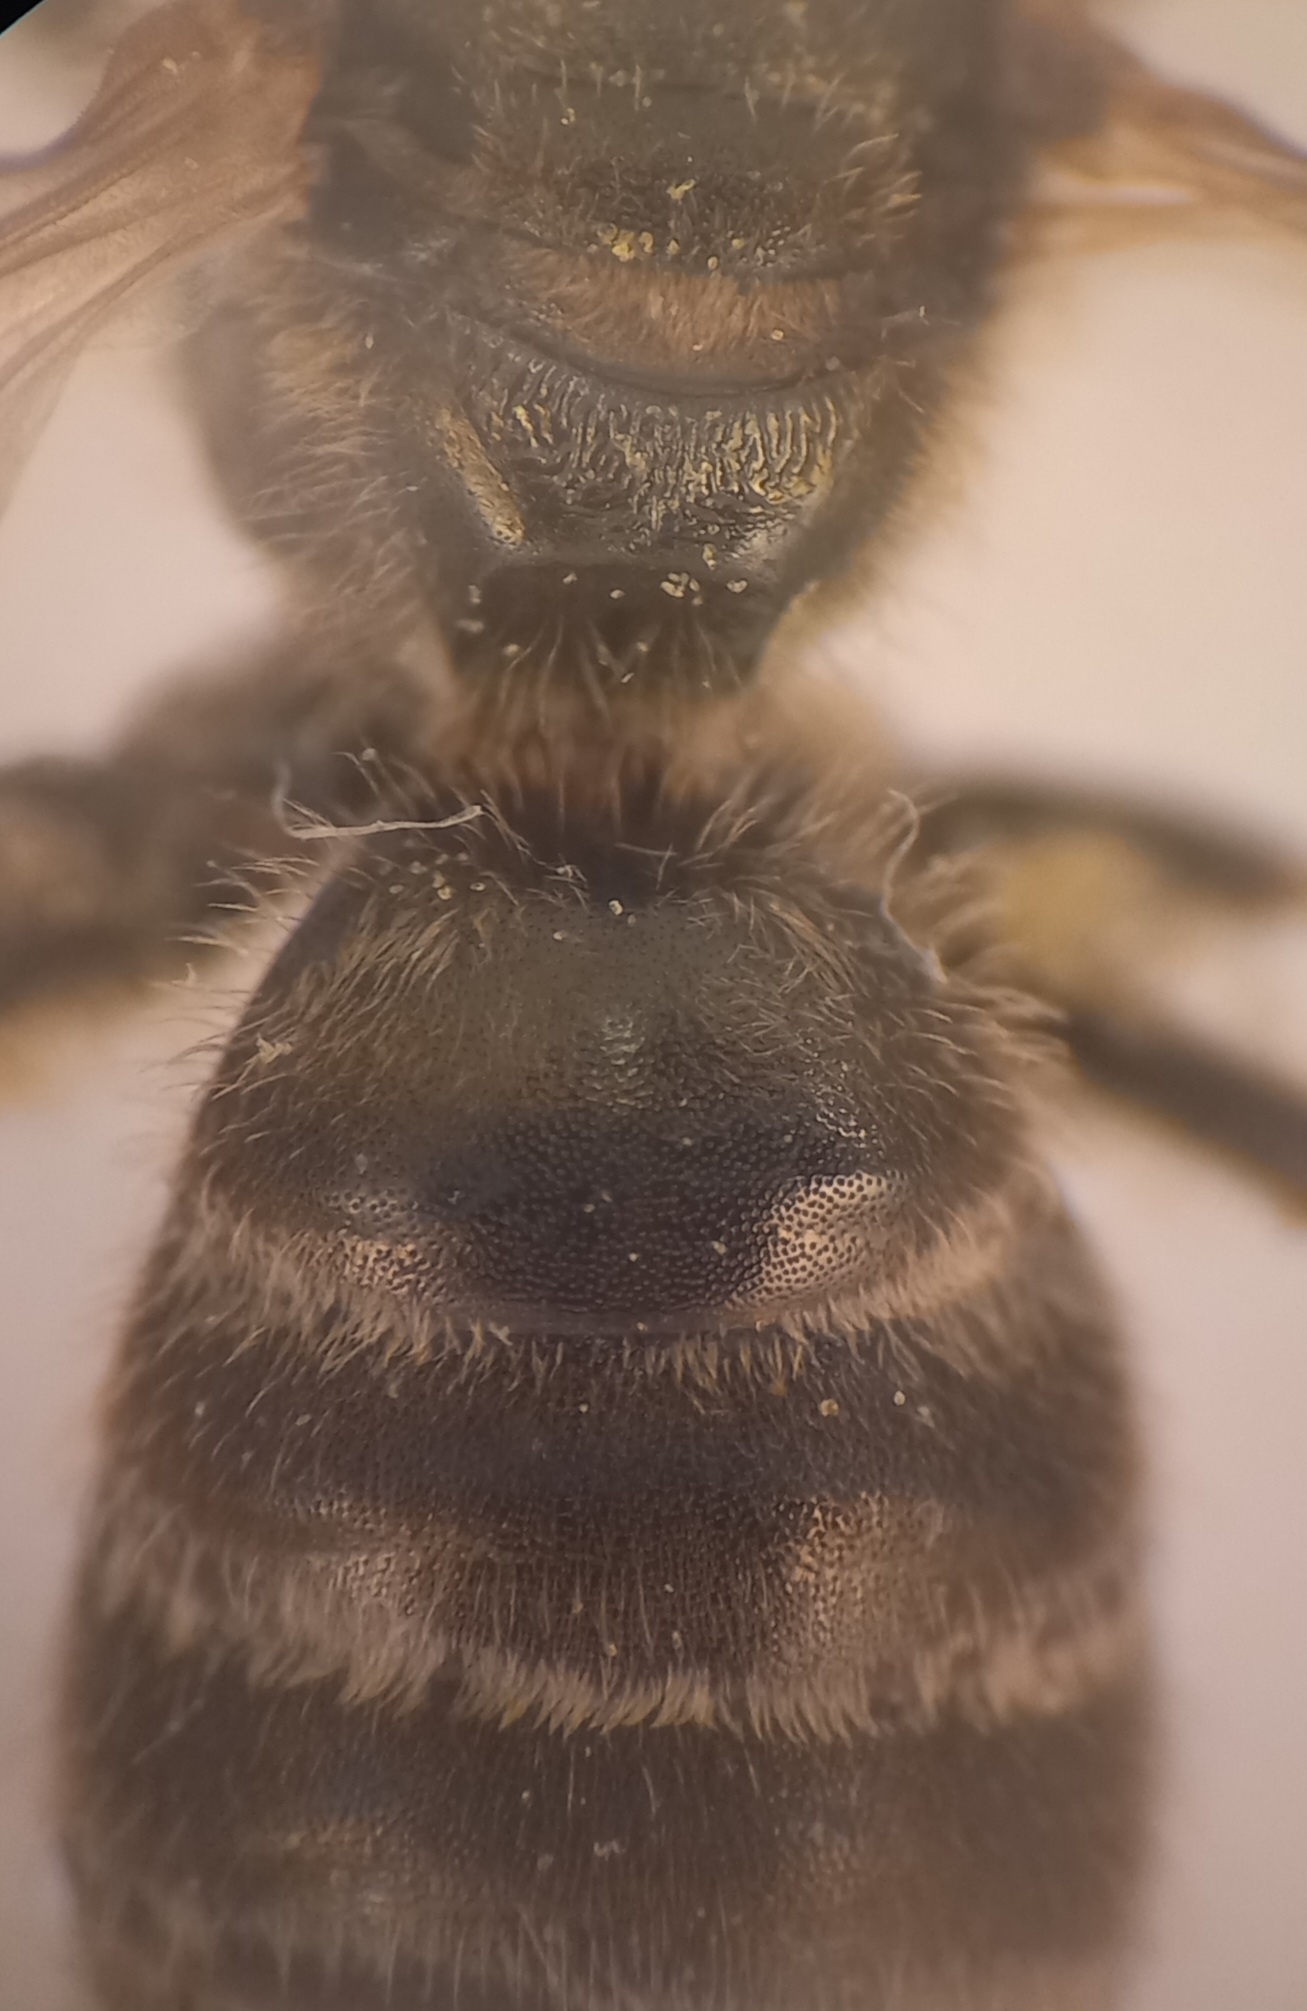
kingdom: Animalia
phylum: Arthropoda
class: Insecta
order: Hymenoptera
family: Halictidae
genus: Halictus
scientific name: Halictus tumulorum
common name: Bronze furrow bee
